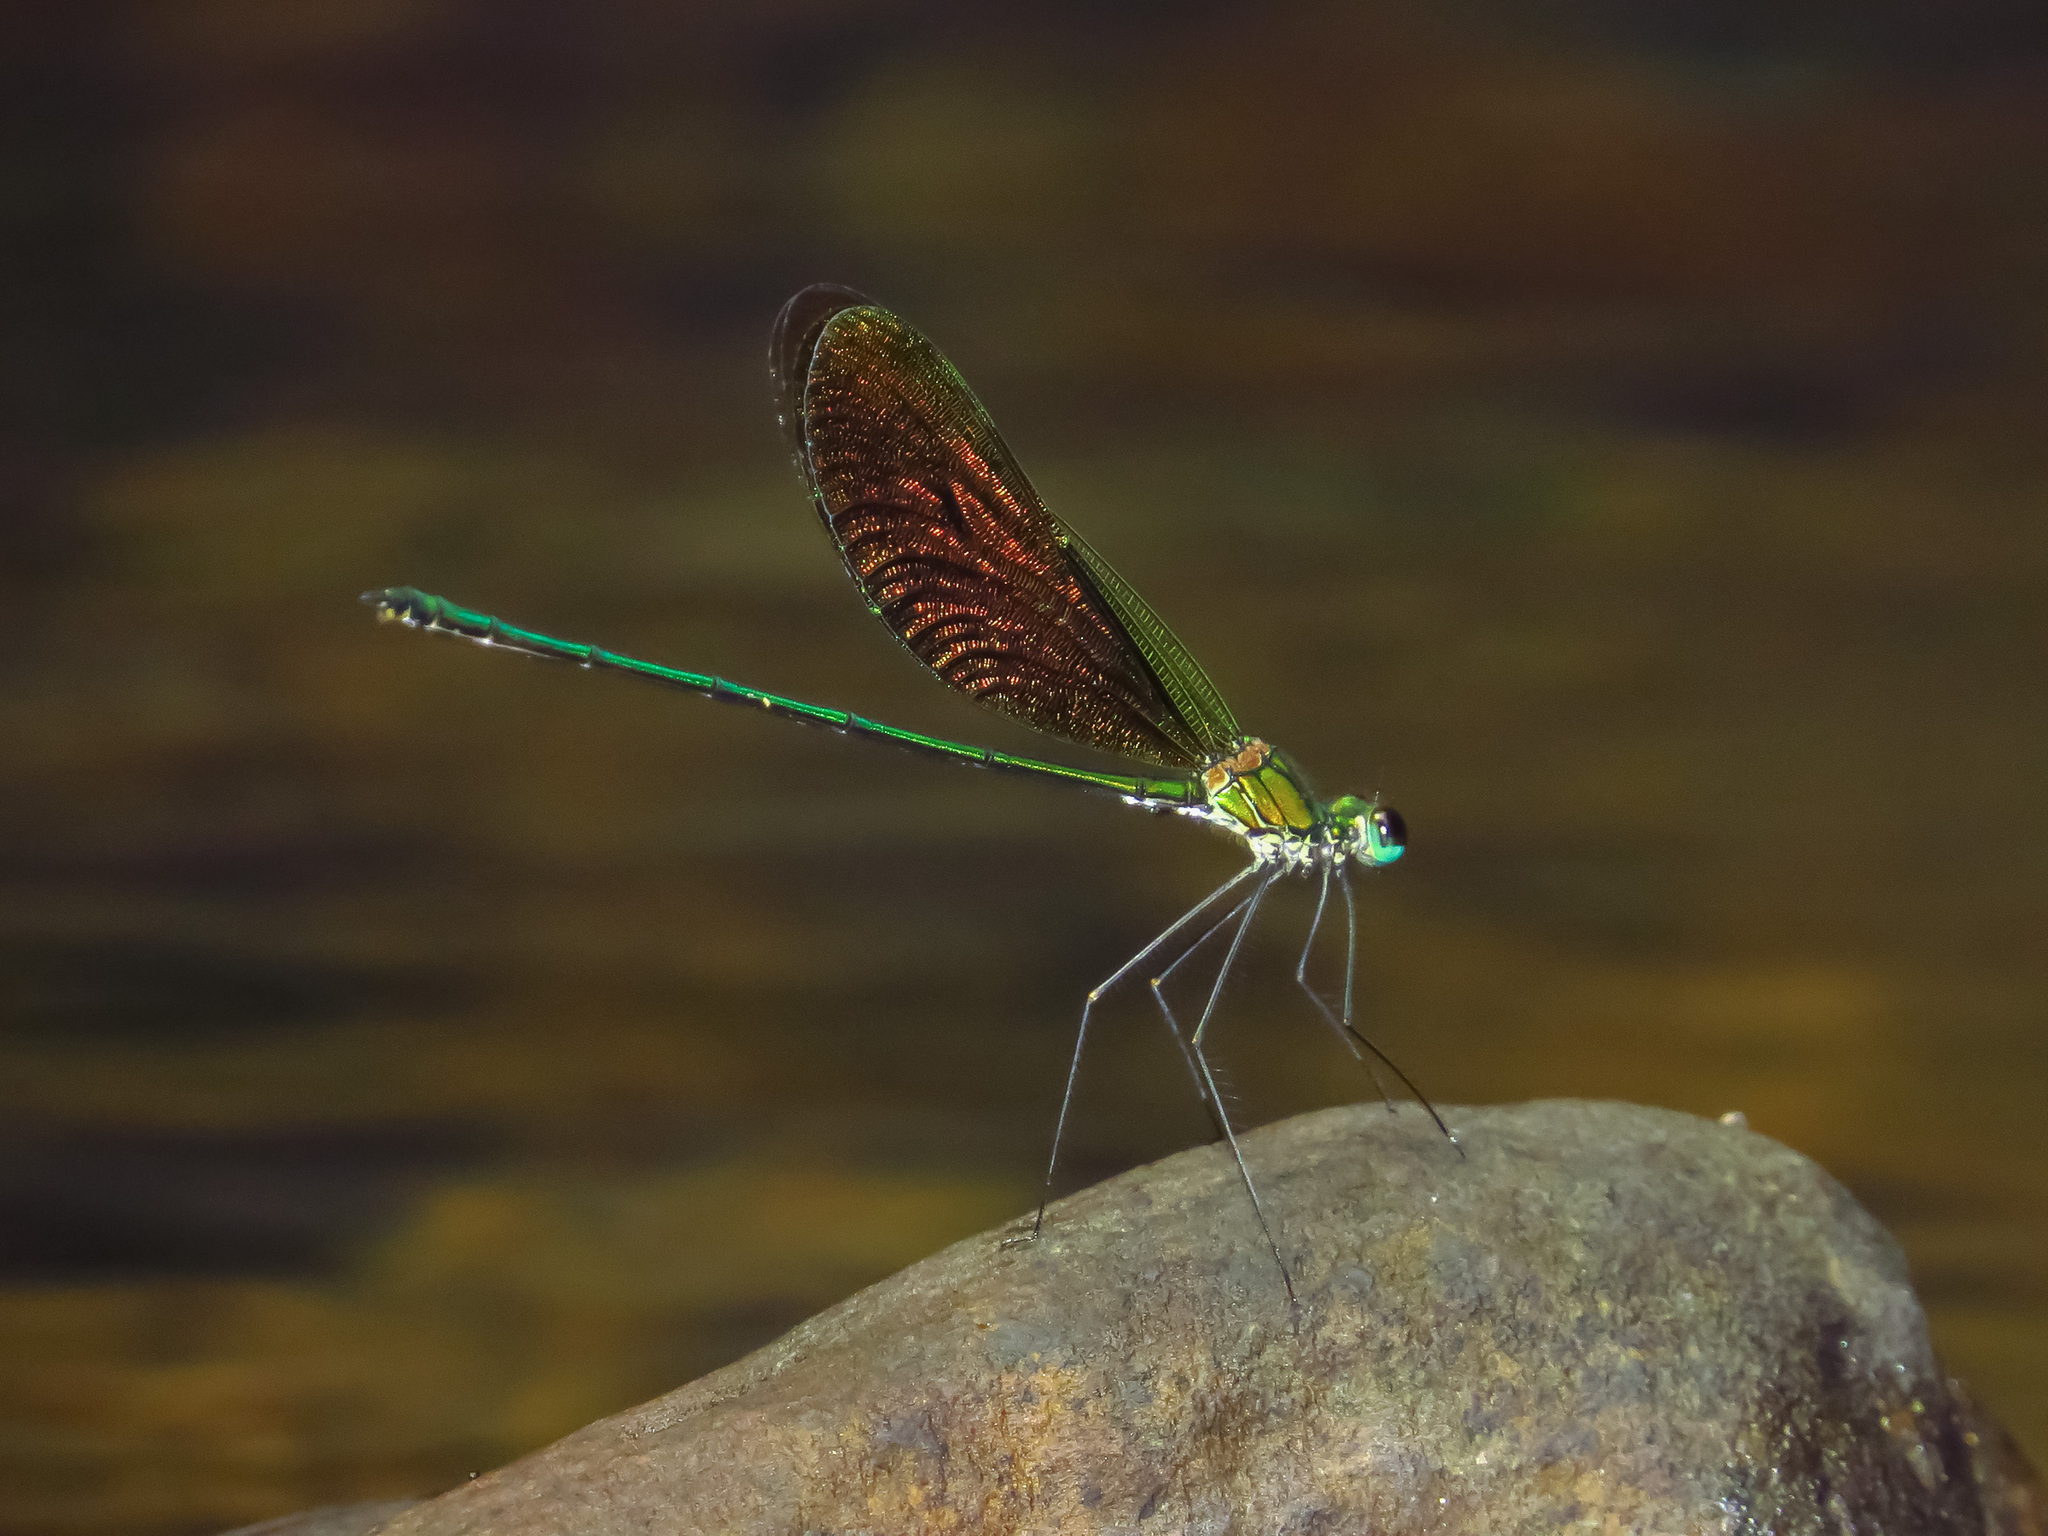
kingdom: Animalia
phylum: Arthropoda
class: Insecta
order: Odonata
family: Calopterygidae
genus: Neurobasis
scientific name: Neurobasis longipes
